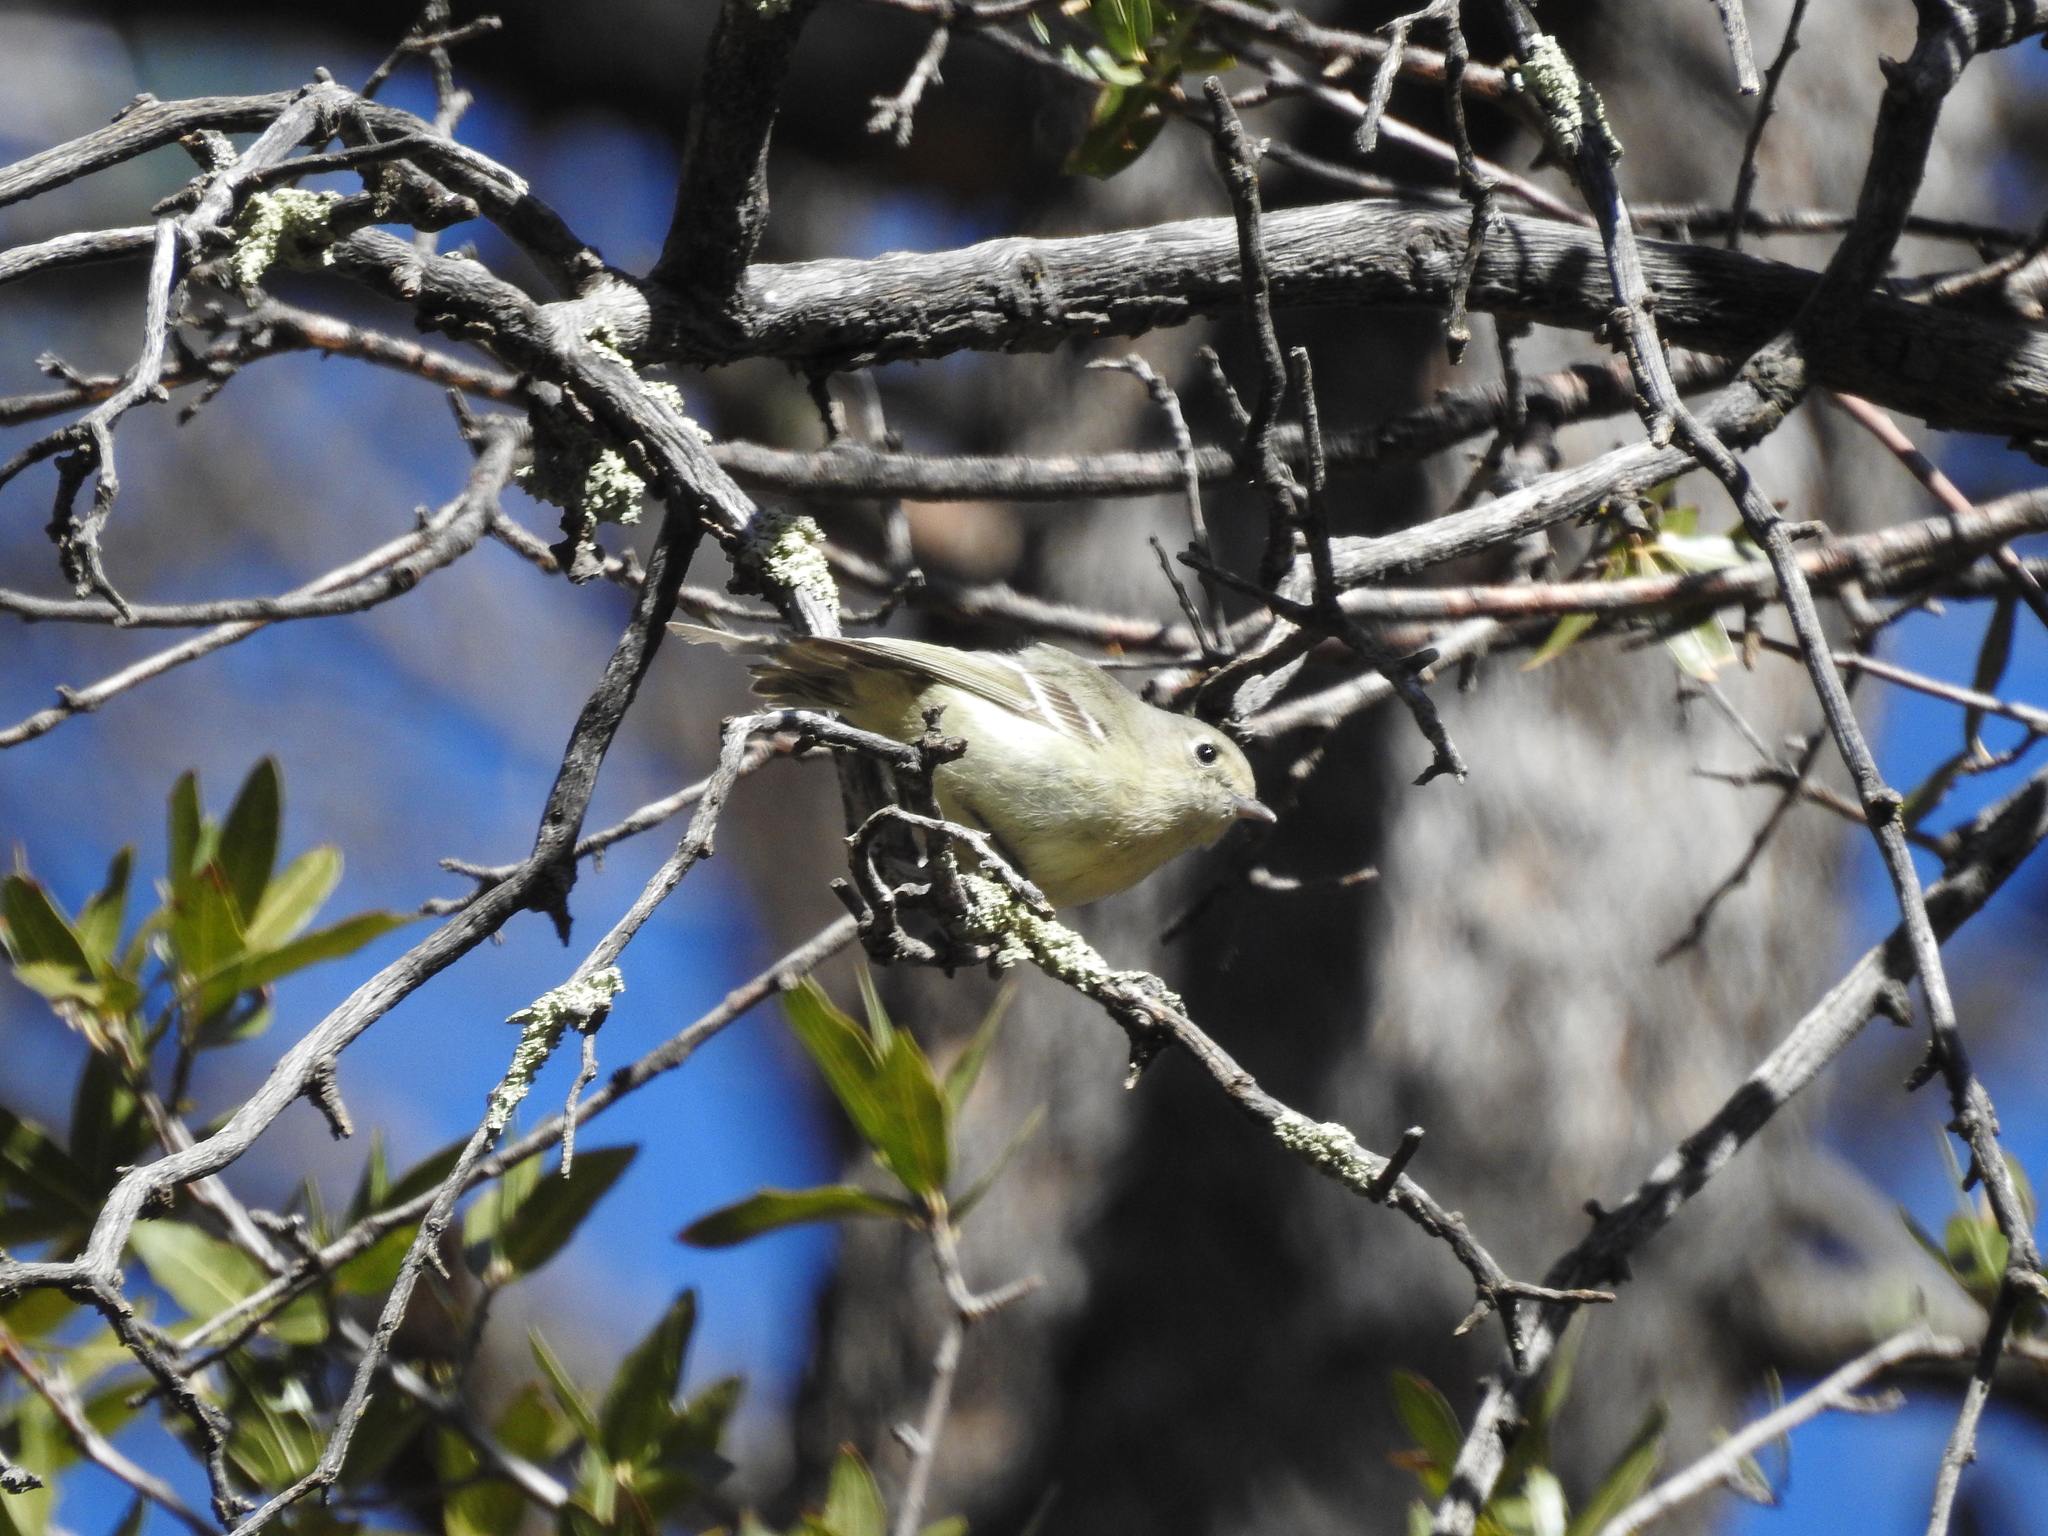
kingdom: Animalia
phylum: Chordata
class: Aves
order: Passeriformes
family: Vireonidae
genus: Vireo
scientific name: Vireo huttoni
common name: Hutton's vireo
